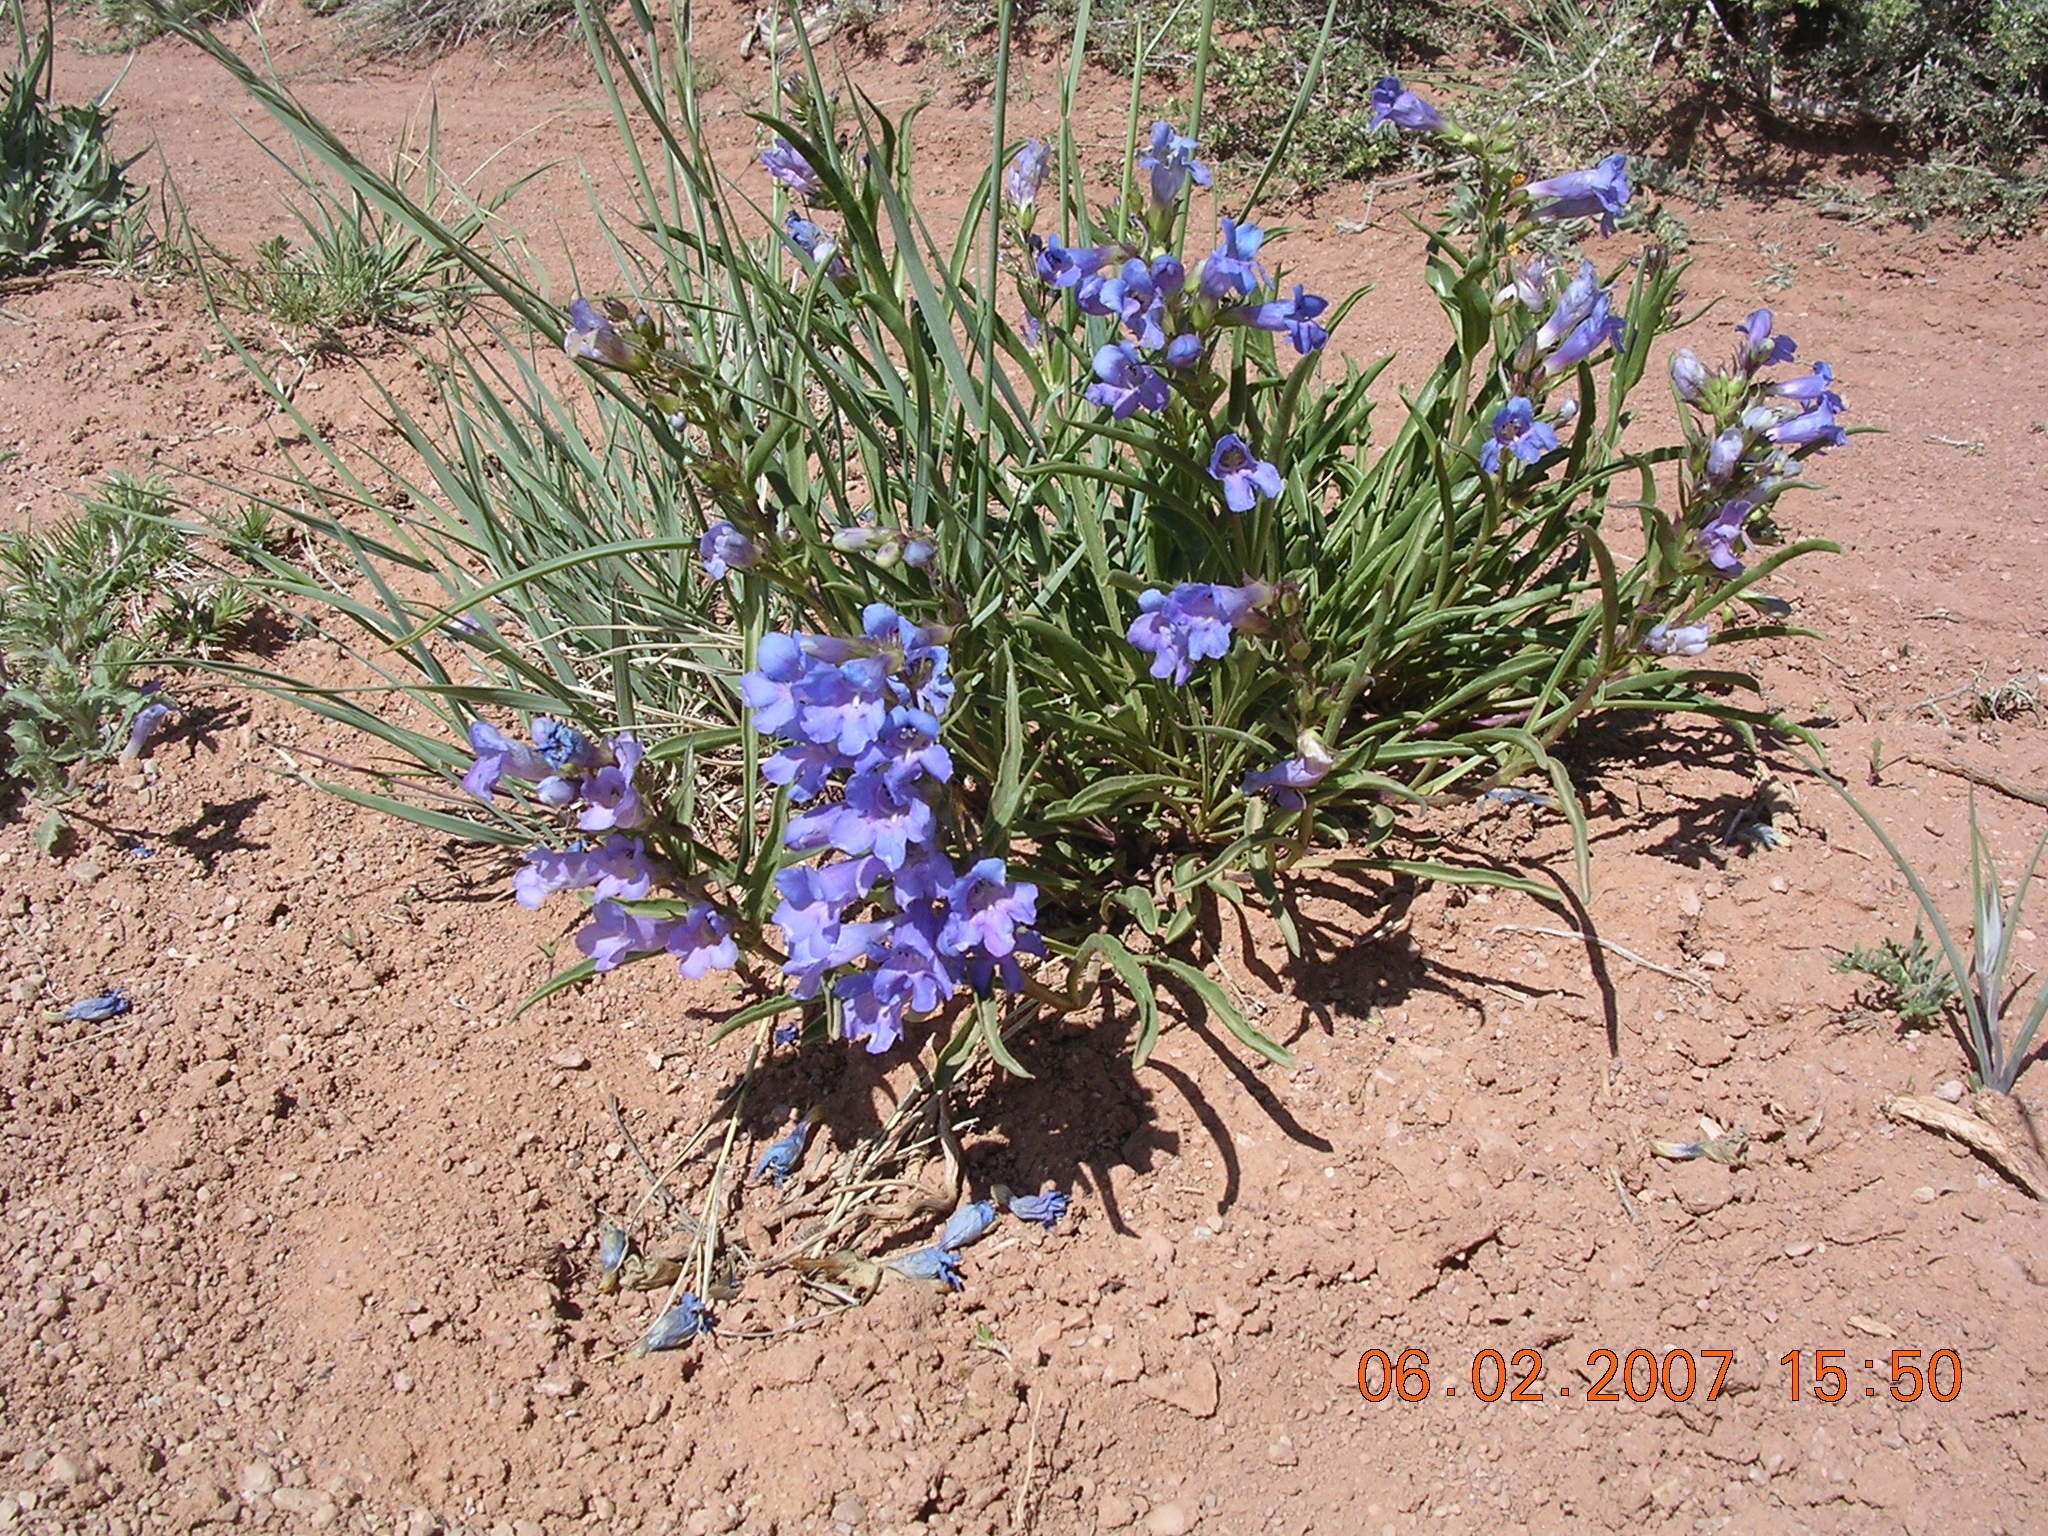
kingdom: Plantae
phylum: Tracheophyta
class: Magnoliopsida
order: Lamiales
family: Plantaginaceae
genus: Penstemon
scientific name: Penstemon paysoniorum
